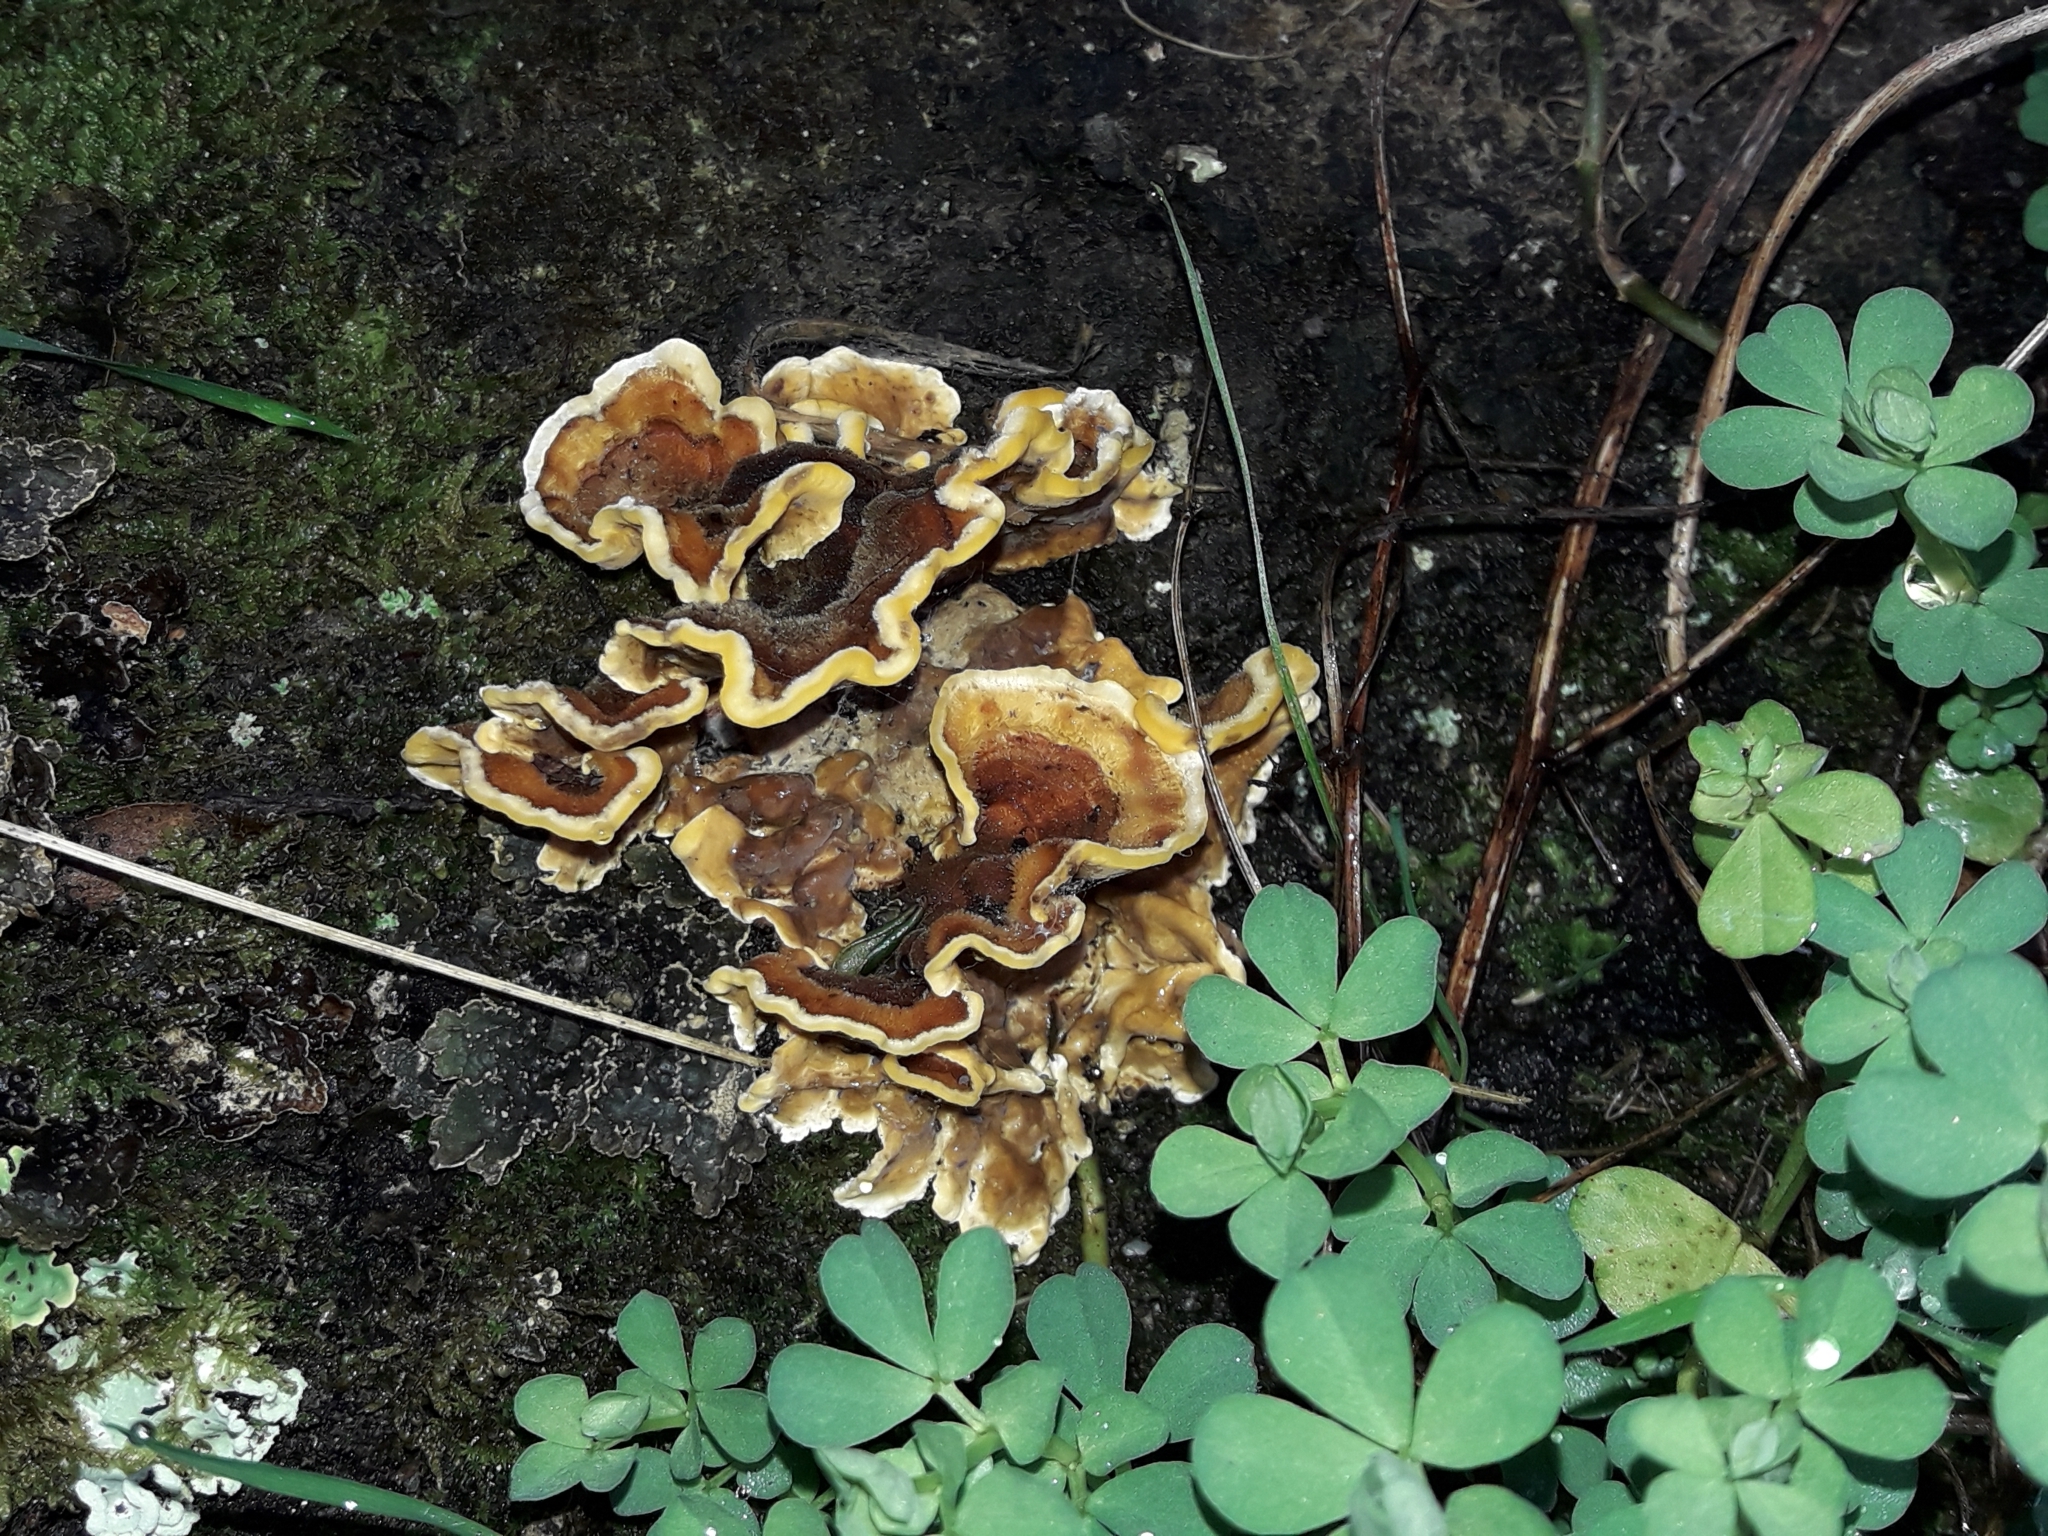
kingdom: Fungi
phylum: Basidiomycota
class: Agaricomycetes
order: Russulales
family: Stereaceae
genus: Stereum
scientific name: Stereum hirsutum
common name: Hairy curtain crust
